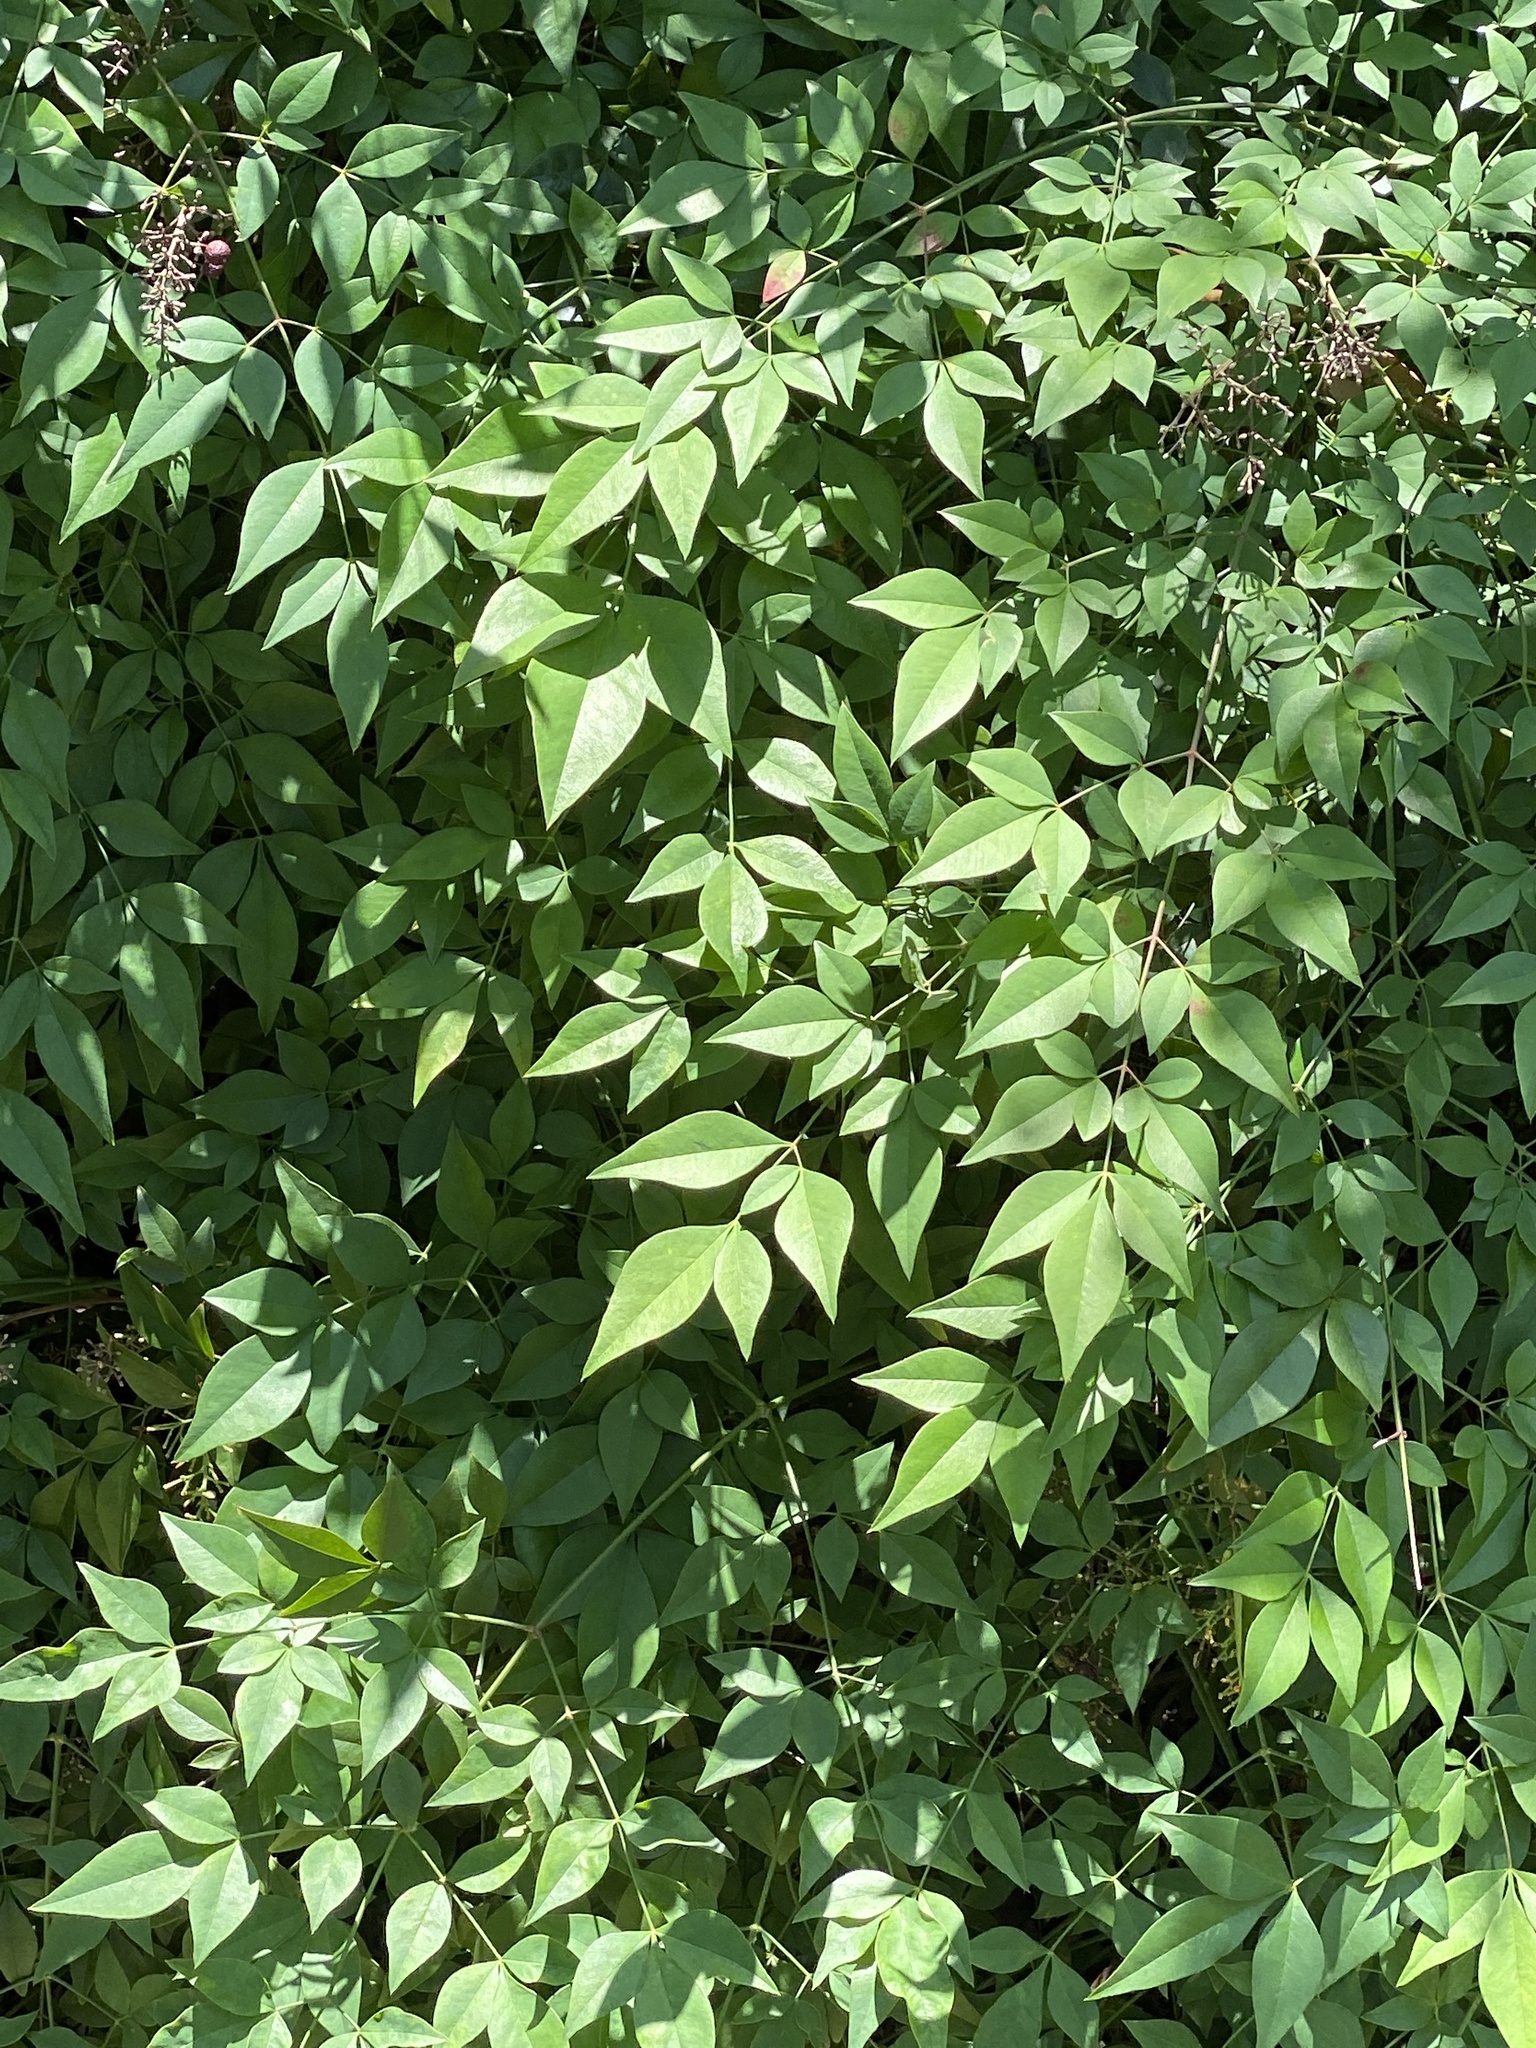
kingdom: Plantae
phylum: Tracheophyta
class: Magnoliopsida
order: Ranunculales
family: Berberidaceae
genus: Nandina
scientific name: Nandina domestica
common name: Sacred bamboo
